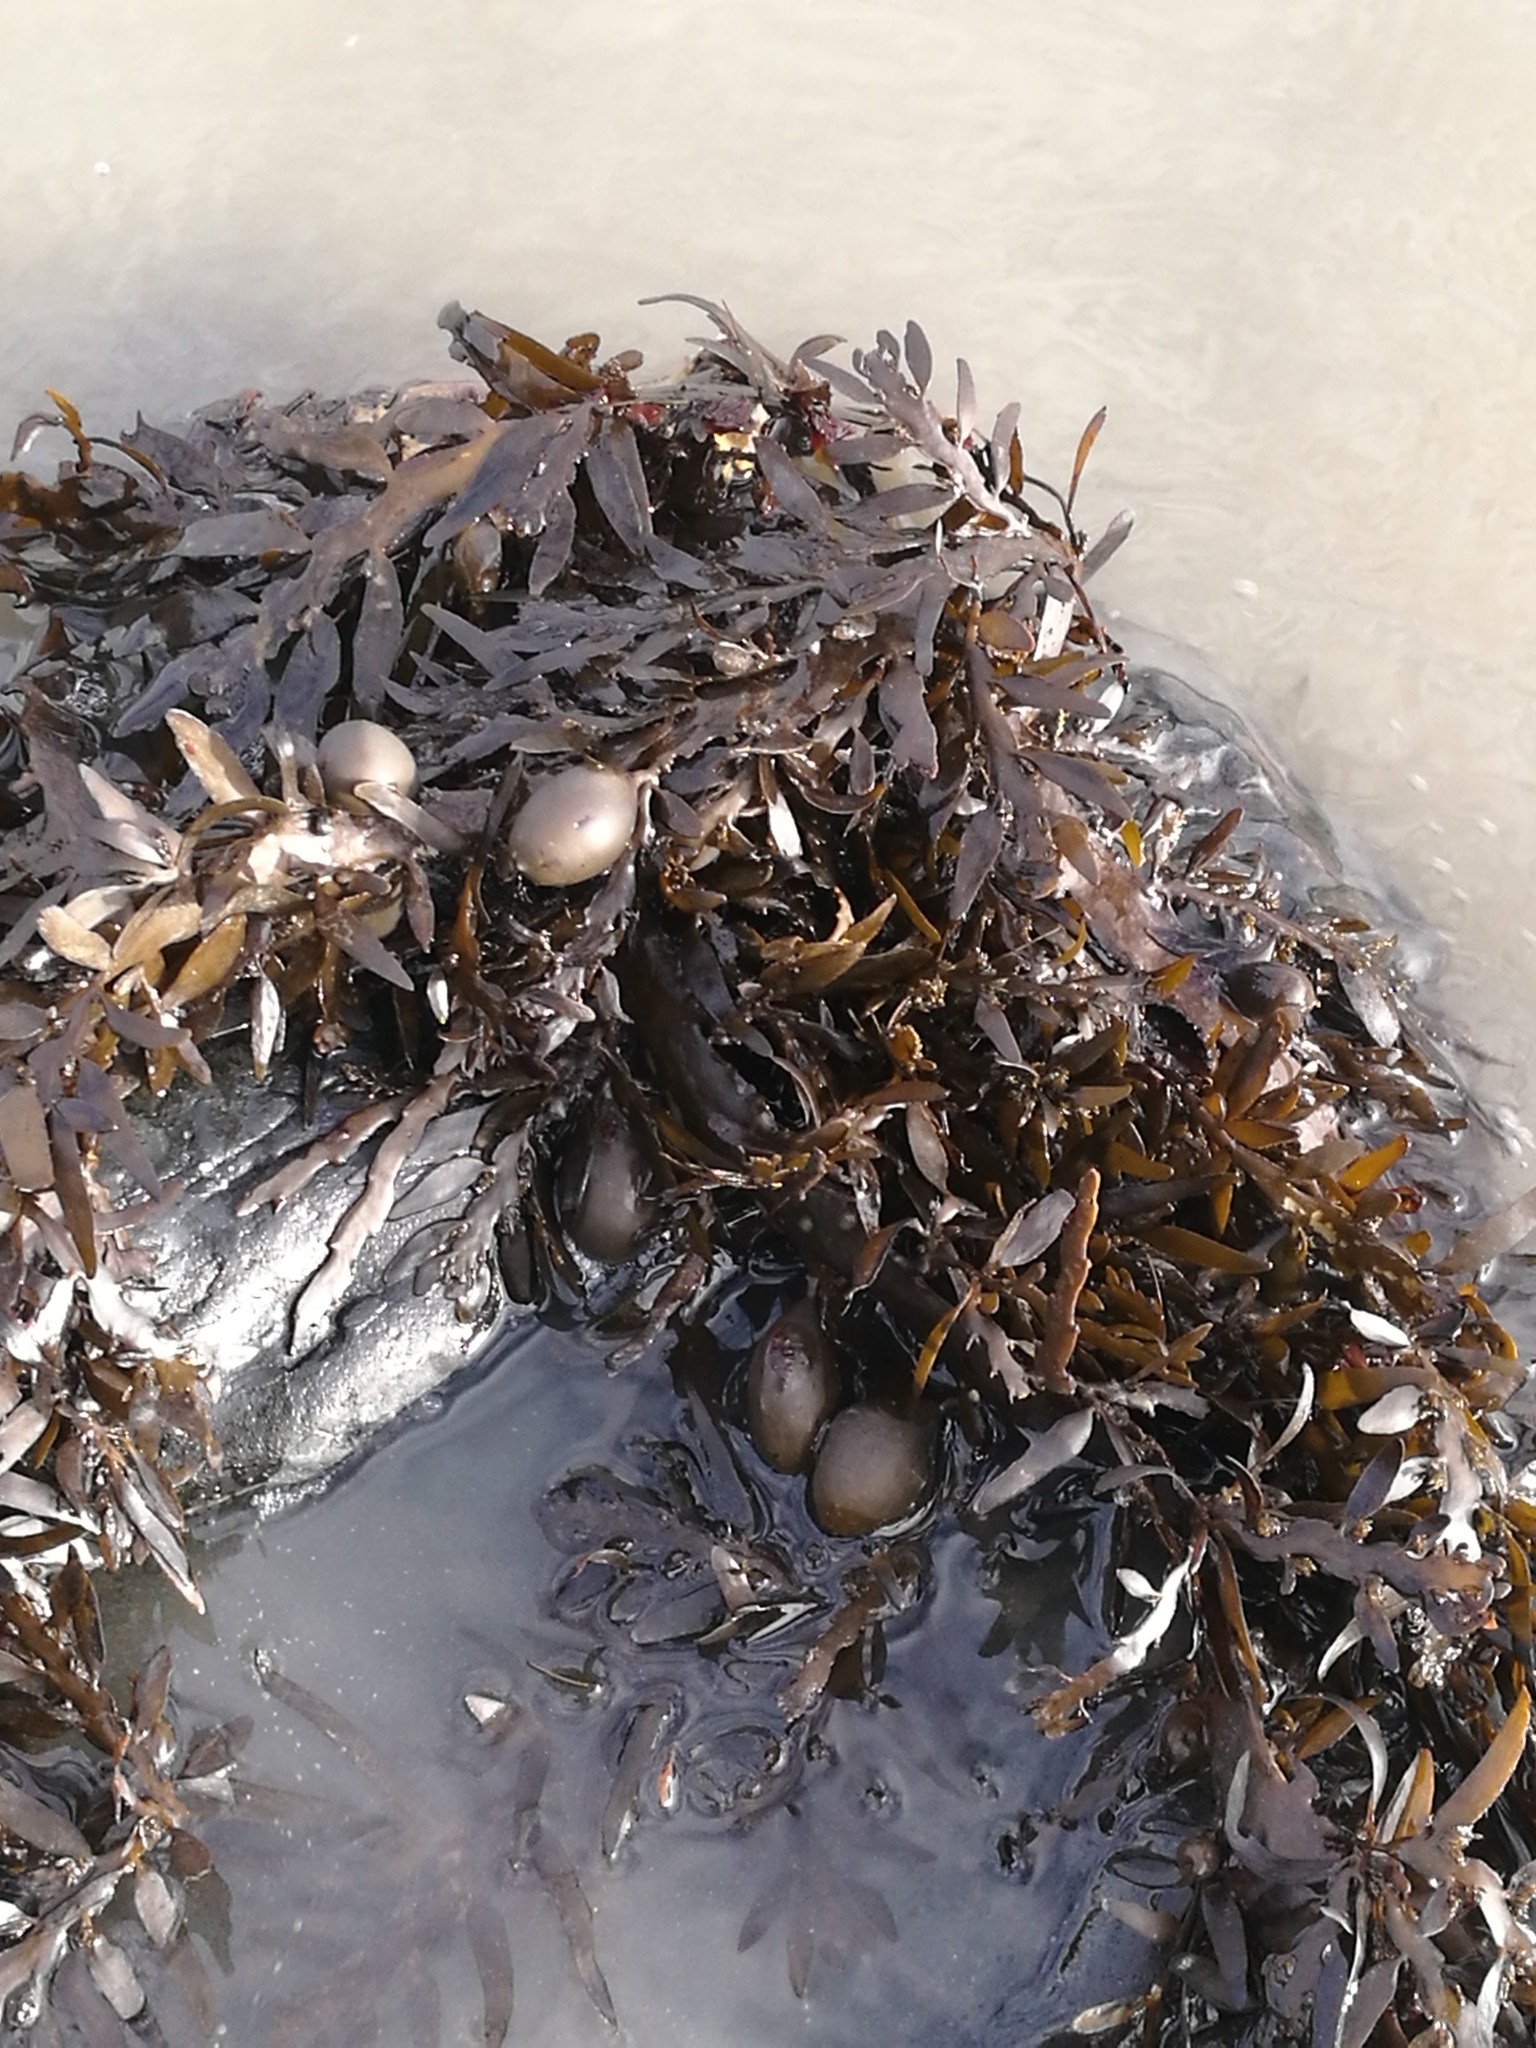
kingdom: Chromista
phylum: Ochrophyta
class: Phaeophyceae
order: Fucales
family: Sargassaceae
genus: Carpophyllum
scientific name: Carpophyllum maschalocarpum
